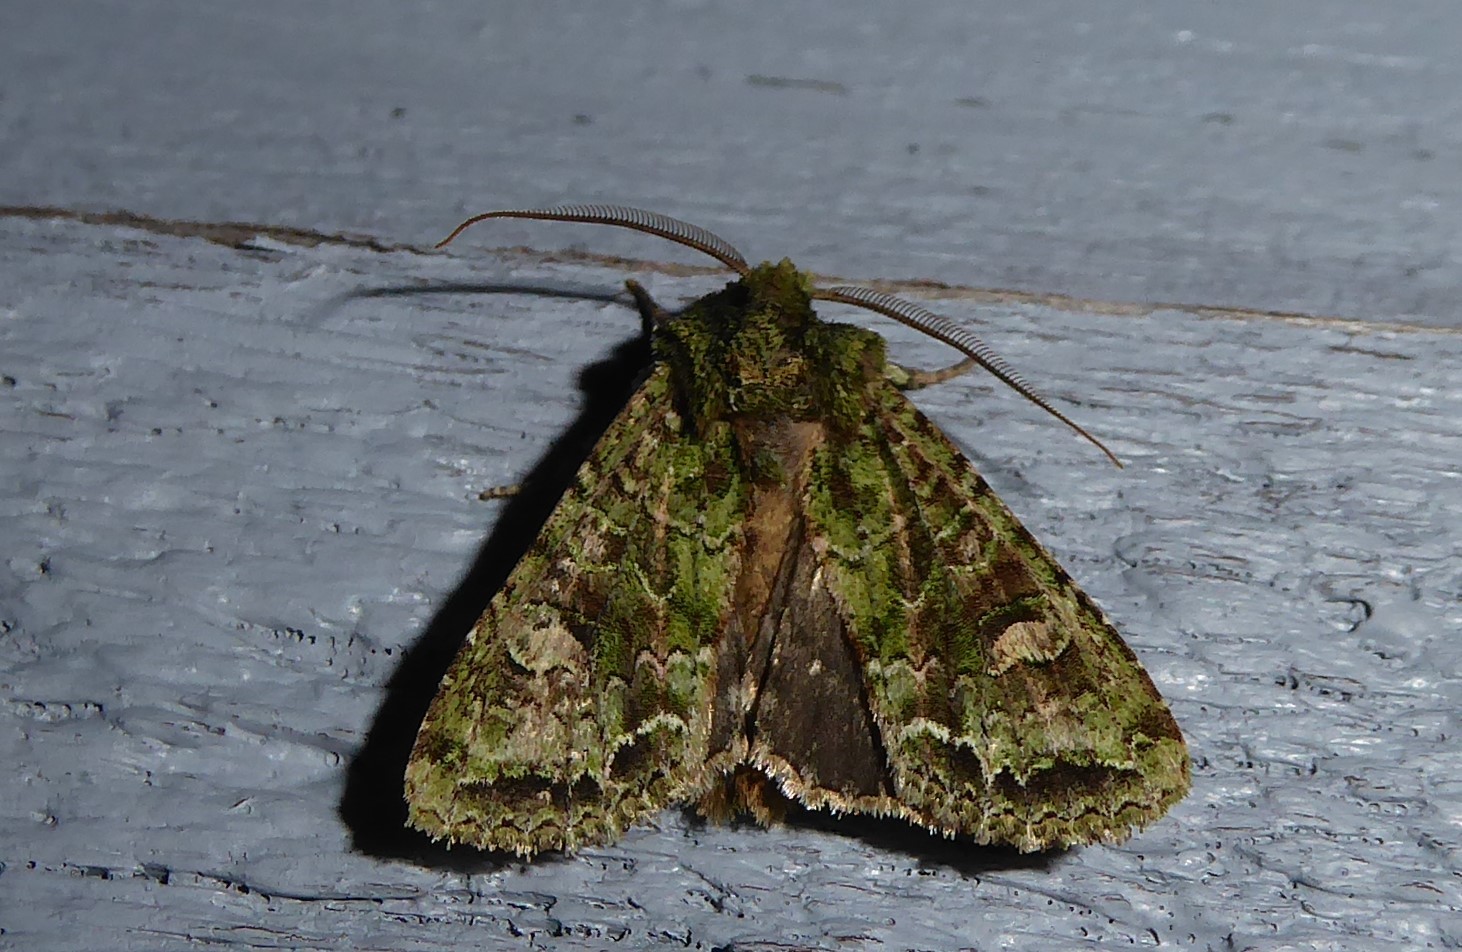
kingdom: Animalia
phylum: Arthropoda
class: Insecta
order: Lepidoptera
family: Noctuidae
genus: Ichneutica
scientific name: Ichneutica
